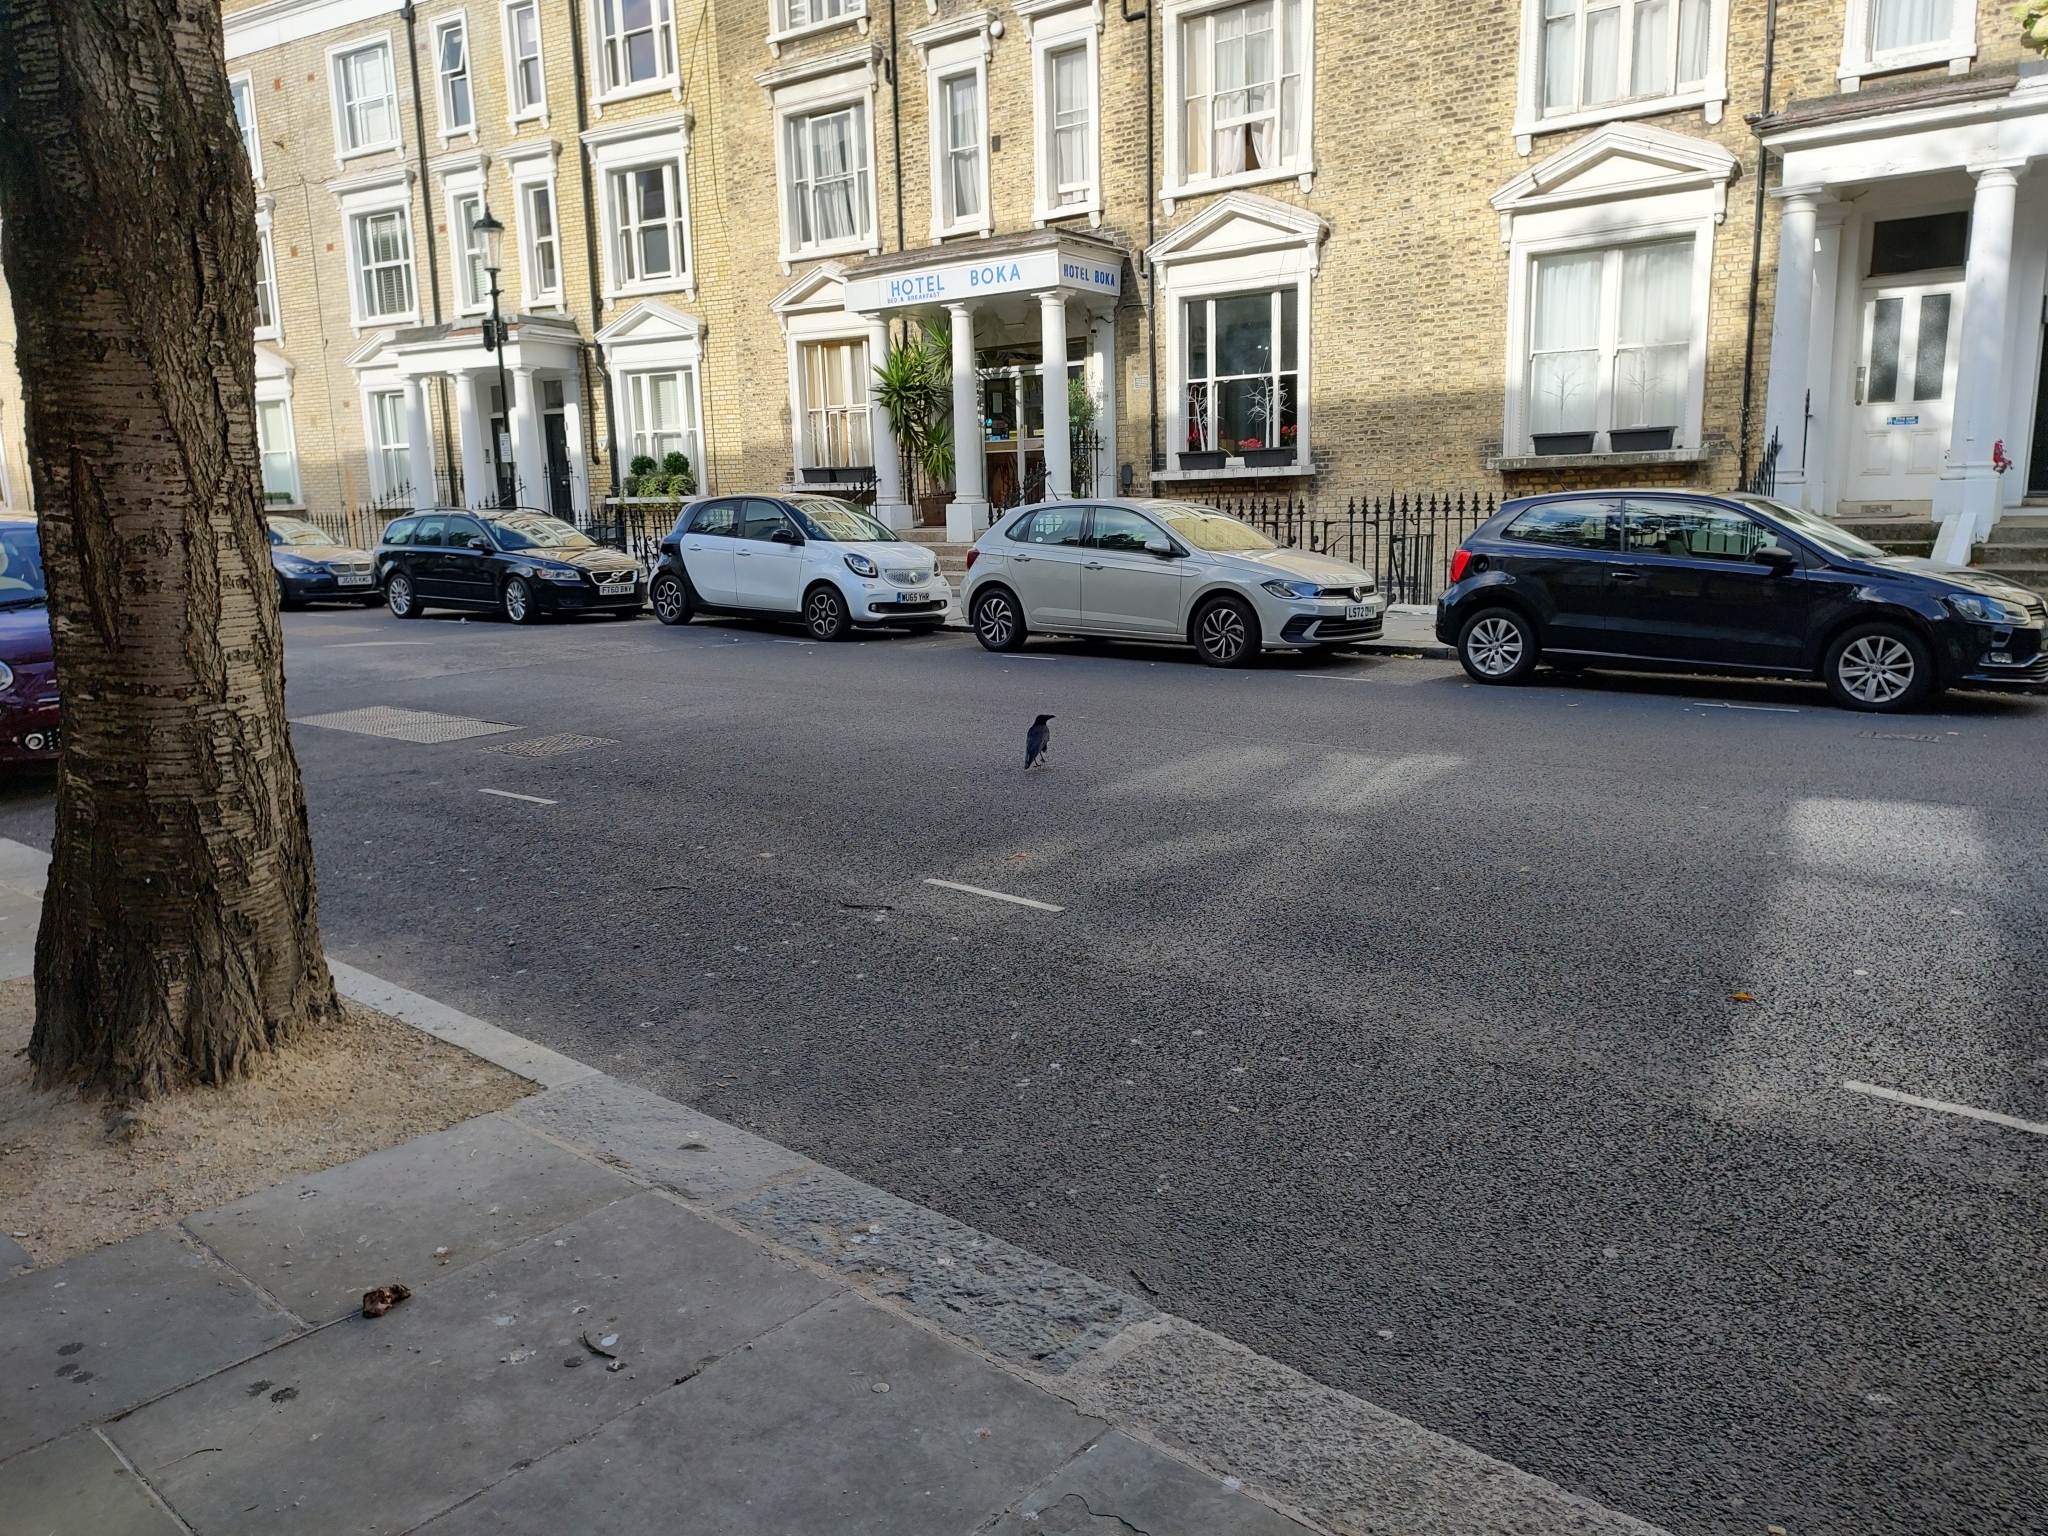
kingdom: Animalia
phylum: Chordata
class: Aves
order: Passeriformes
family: Corvidae
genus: Corvus
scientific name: Corvus corone
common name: Carrion crow
